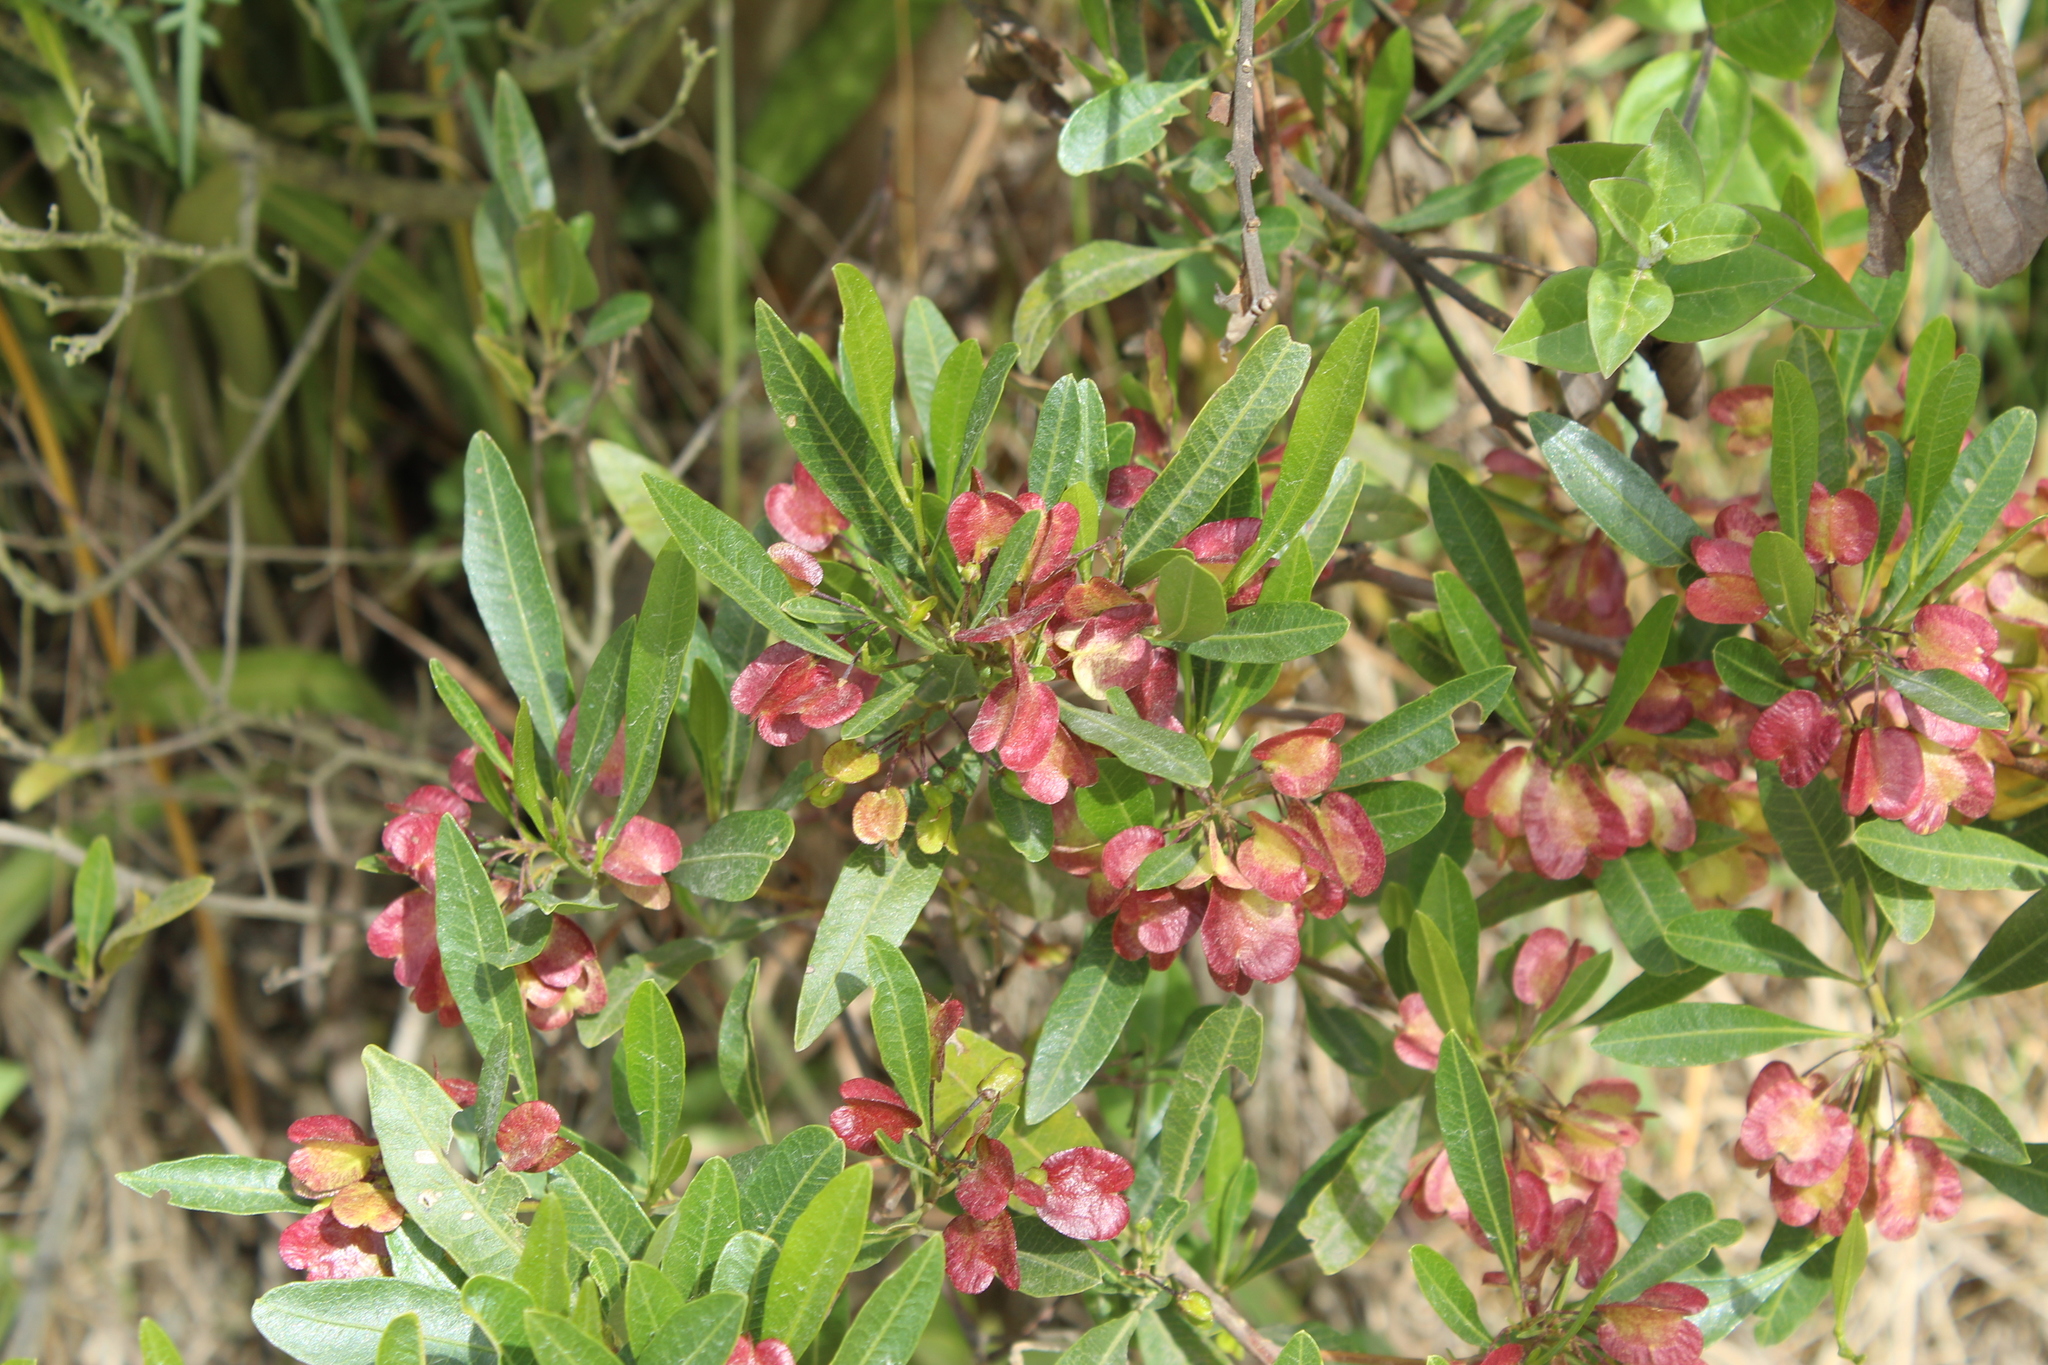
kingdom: Plantae
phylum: Tracheophyta
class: Magnoliopsida
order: Sapindales
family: Sapindaceae
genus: Dodonaea
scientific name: Dodonaea viscosa
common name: Hopbush
